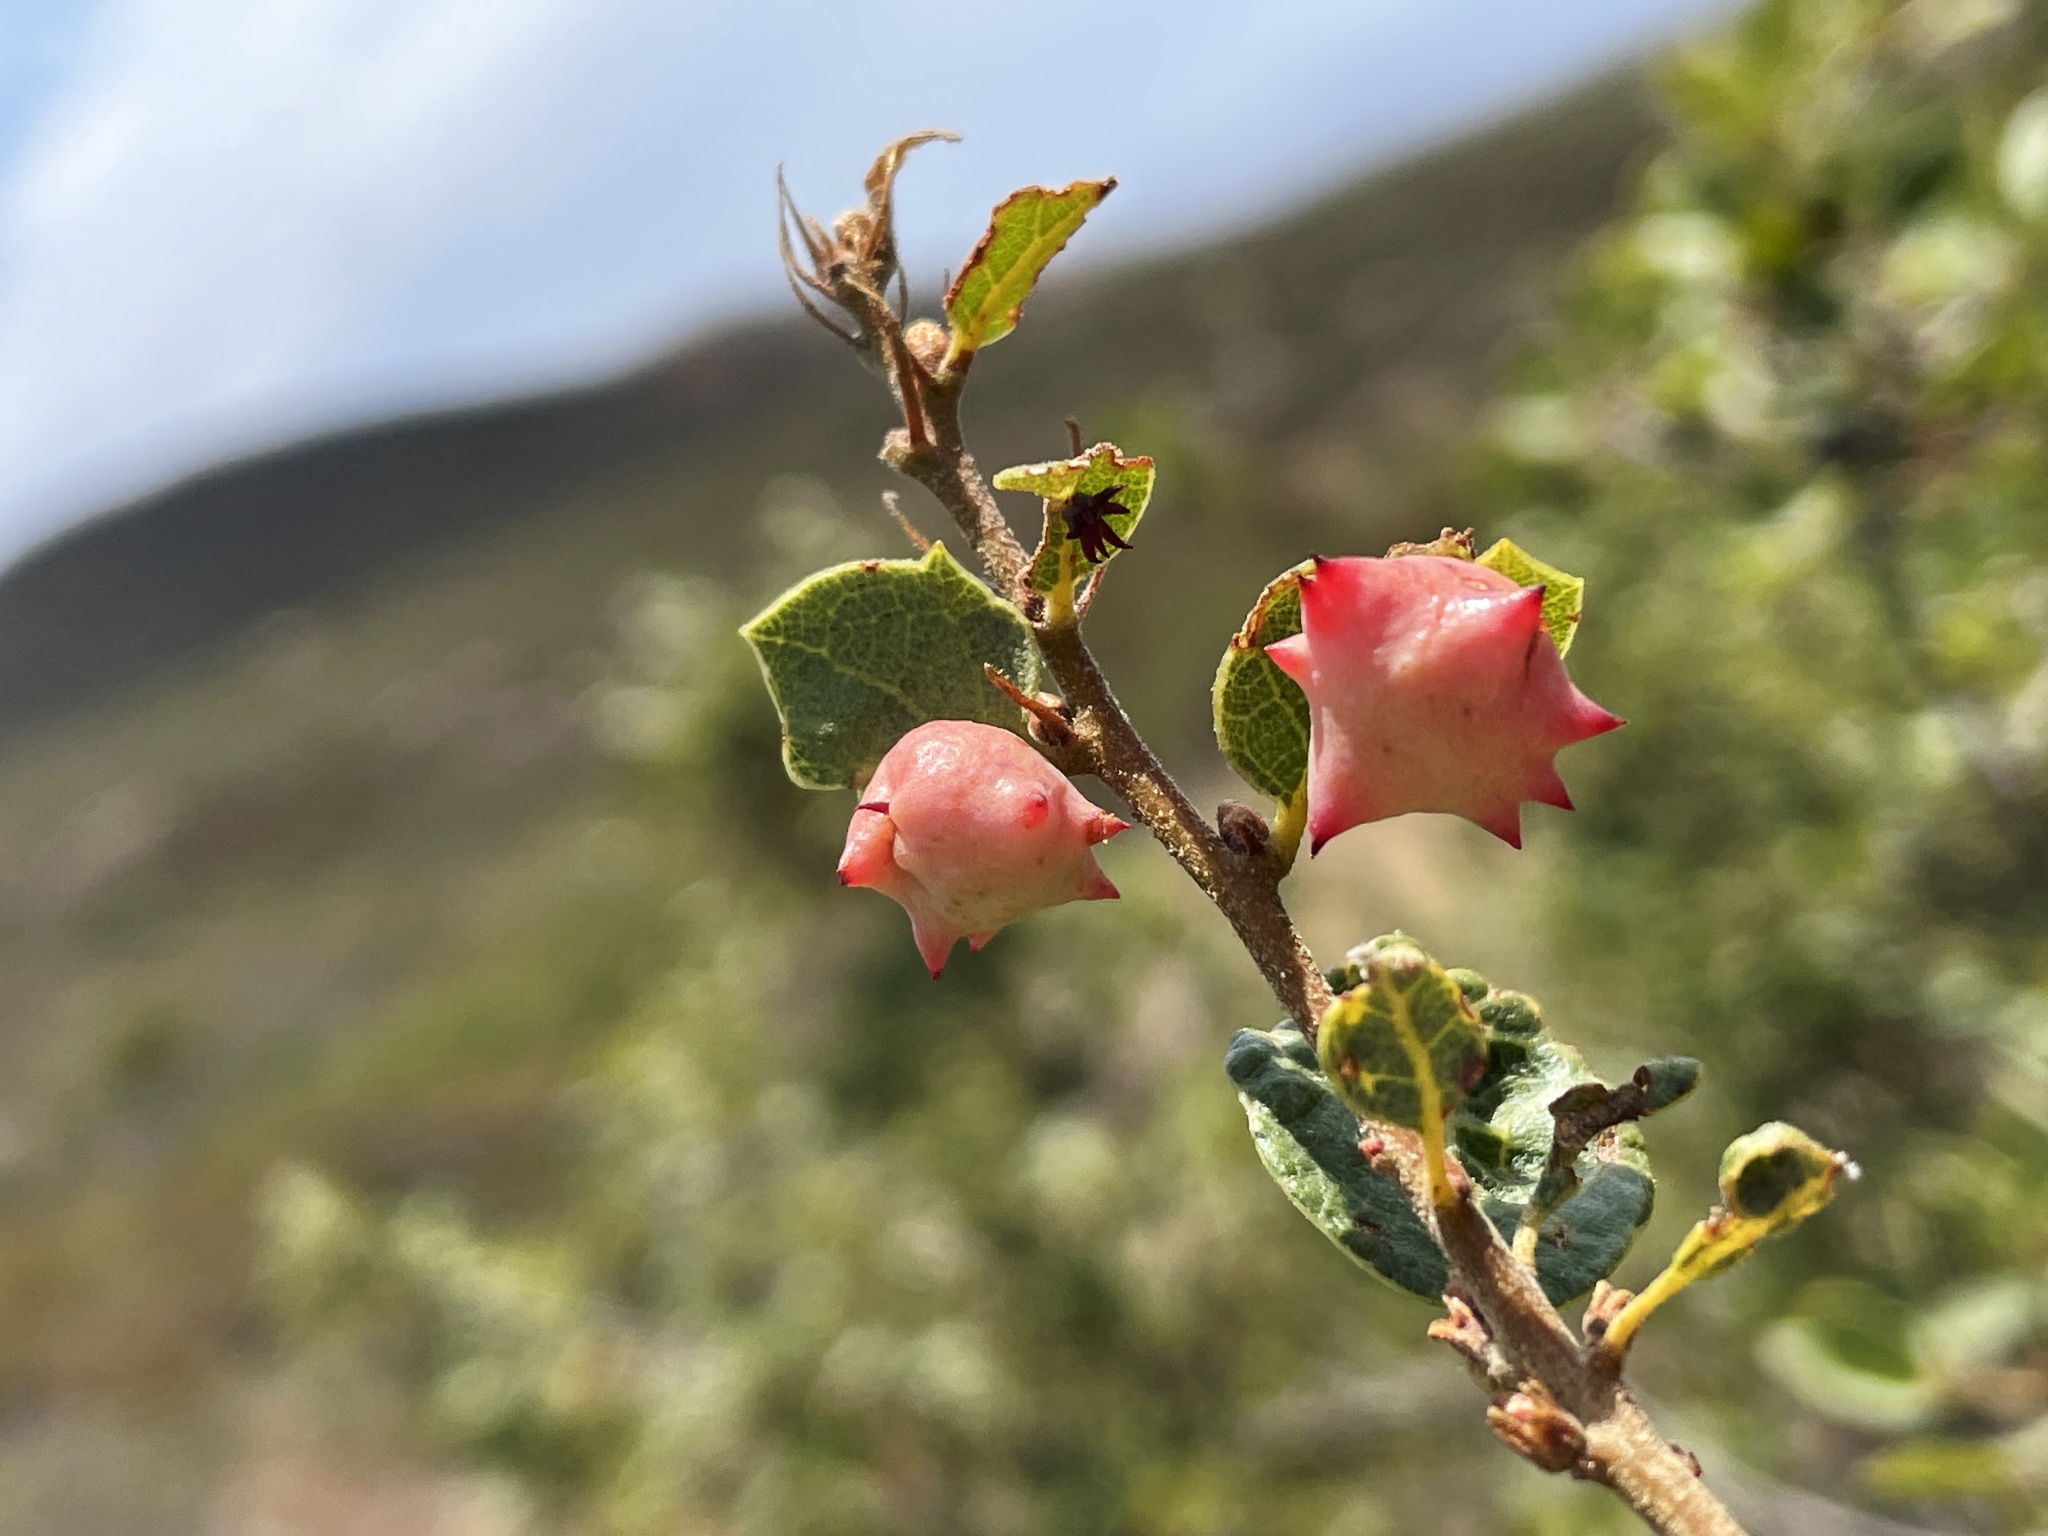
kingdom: Animalia
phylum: Arthropoda
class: Insecta
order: Hymenoptera
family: Cynipidae
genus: Cynips
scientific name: Cynips douglasi
